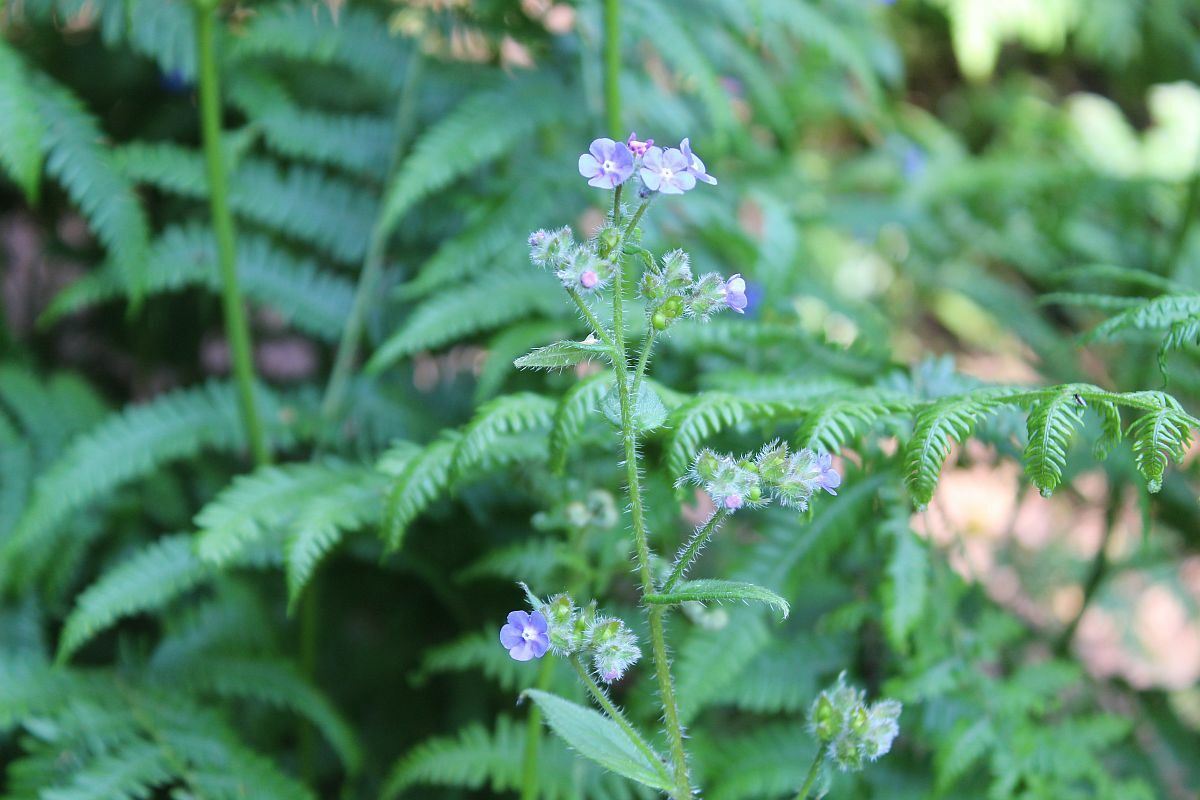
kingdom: Plantae
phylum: Tracheophyta
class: Magnoliopsida
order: Boraginales
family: Boraginaceae
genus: Pentaglottis
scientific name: Pentaglottis sempervirens
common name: Green alkanet
